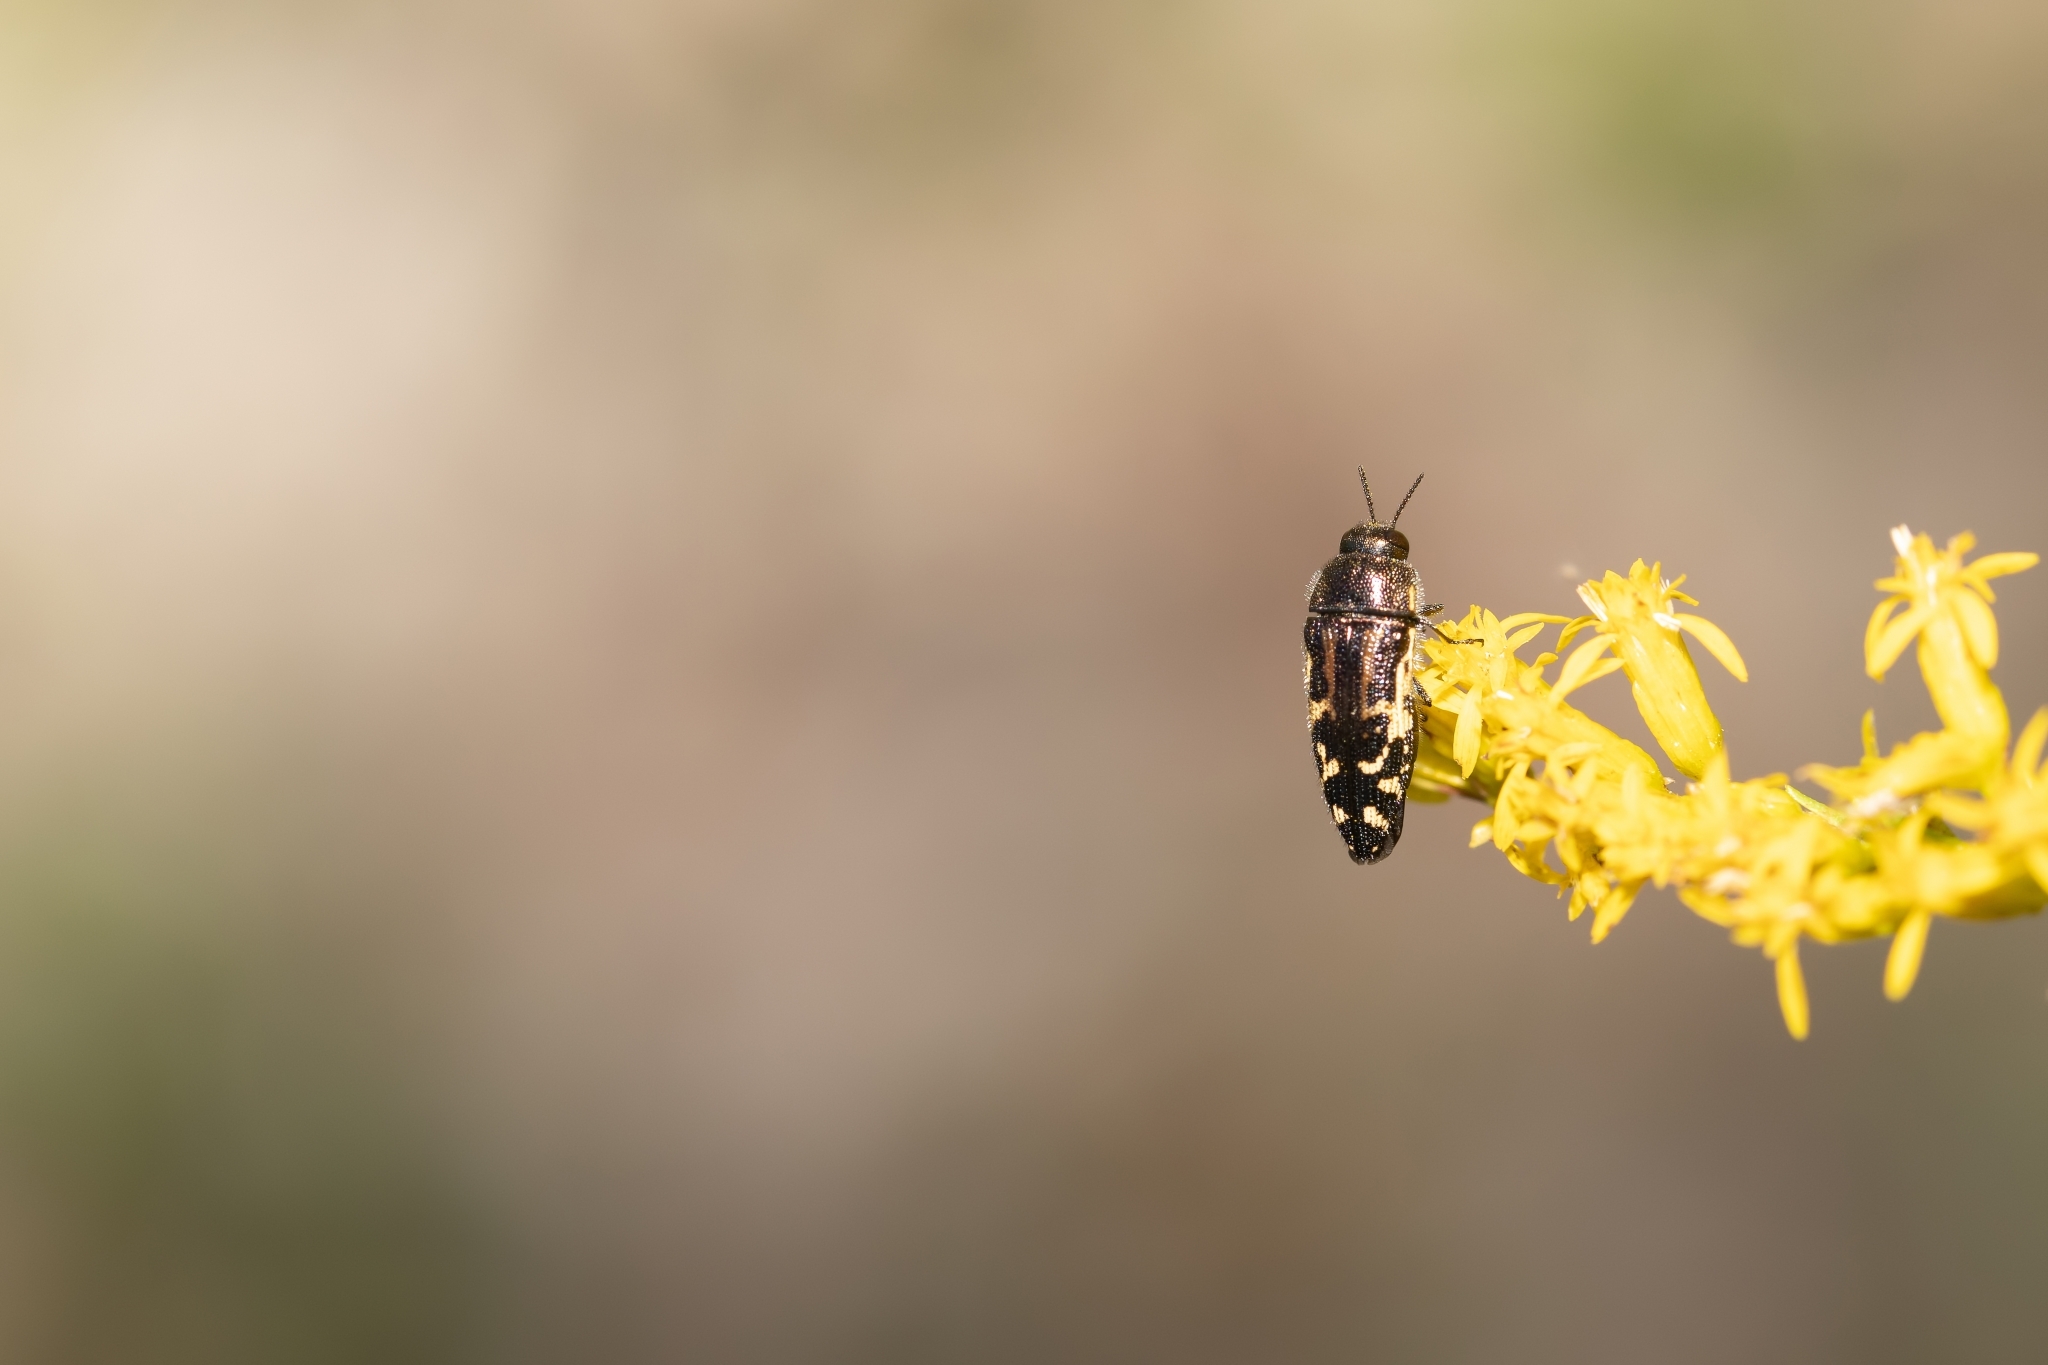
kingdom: Animalia
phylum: Arthropoda
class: Insecta
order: Coleoptera
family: Buprestidae
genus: Acmaeodera
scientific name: Acmaeodera pulchella
